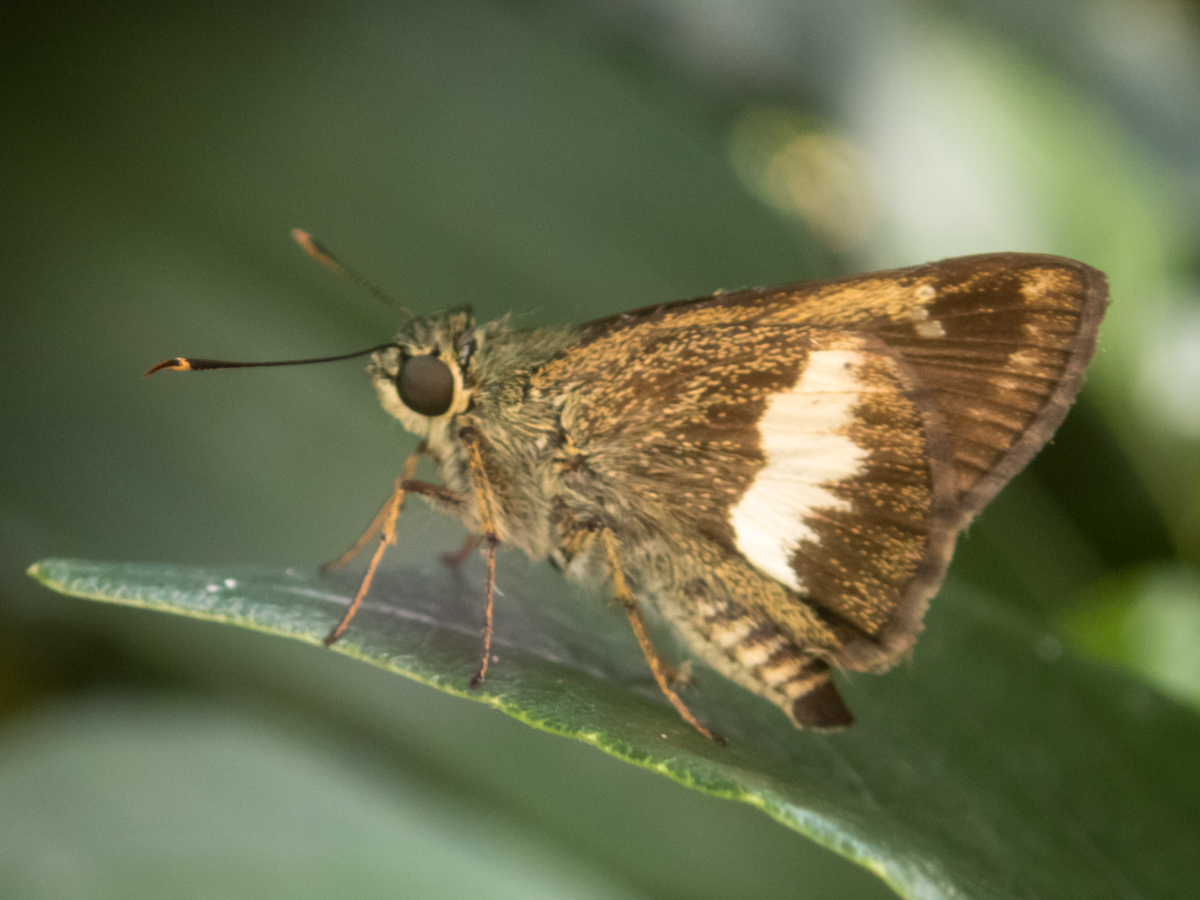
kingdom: Animalia
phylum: Arthropoda
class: Insecta
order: Lepidoptera
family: Hesperiidae
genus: Halpe
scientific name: Halpe zola
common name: Long-banded ace
